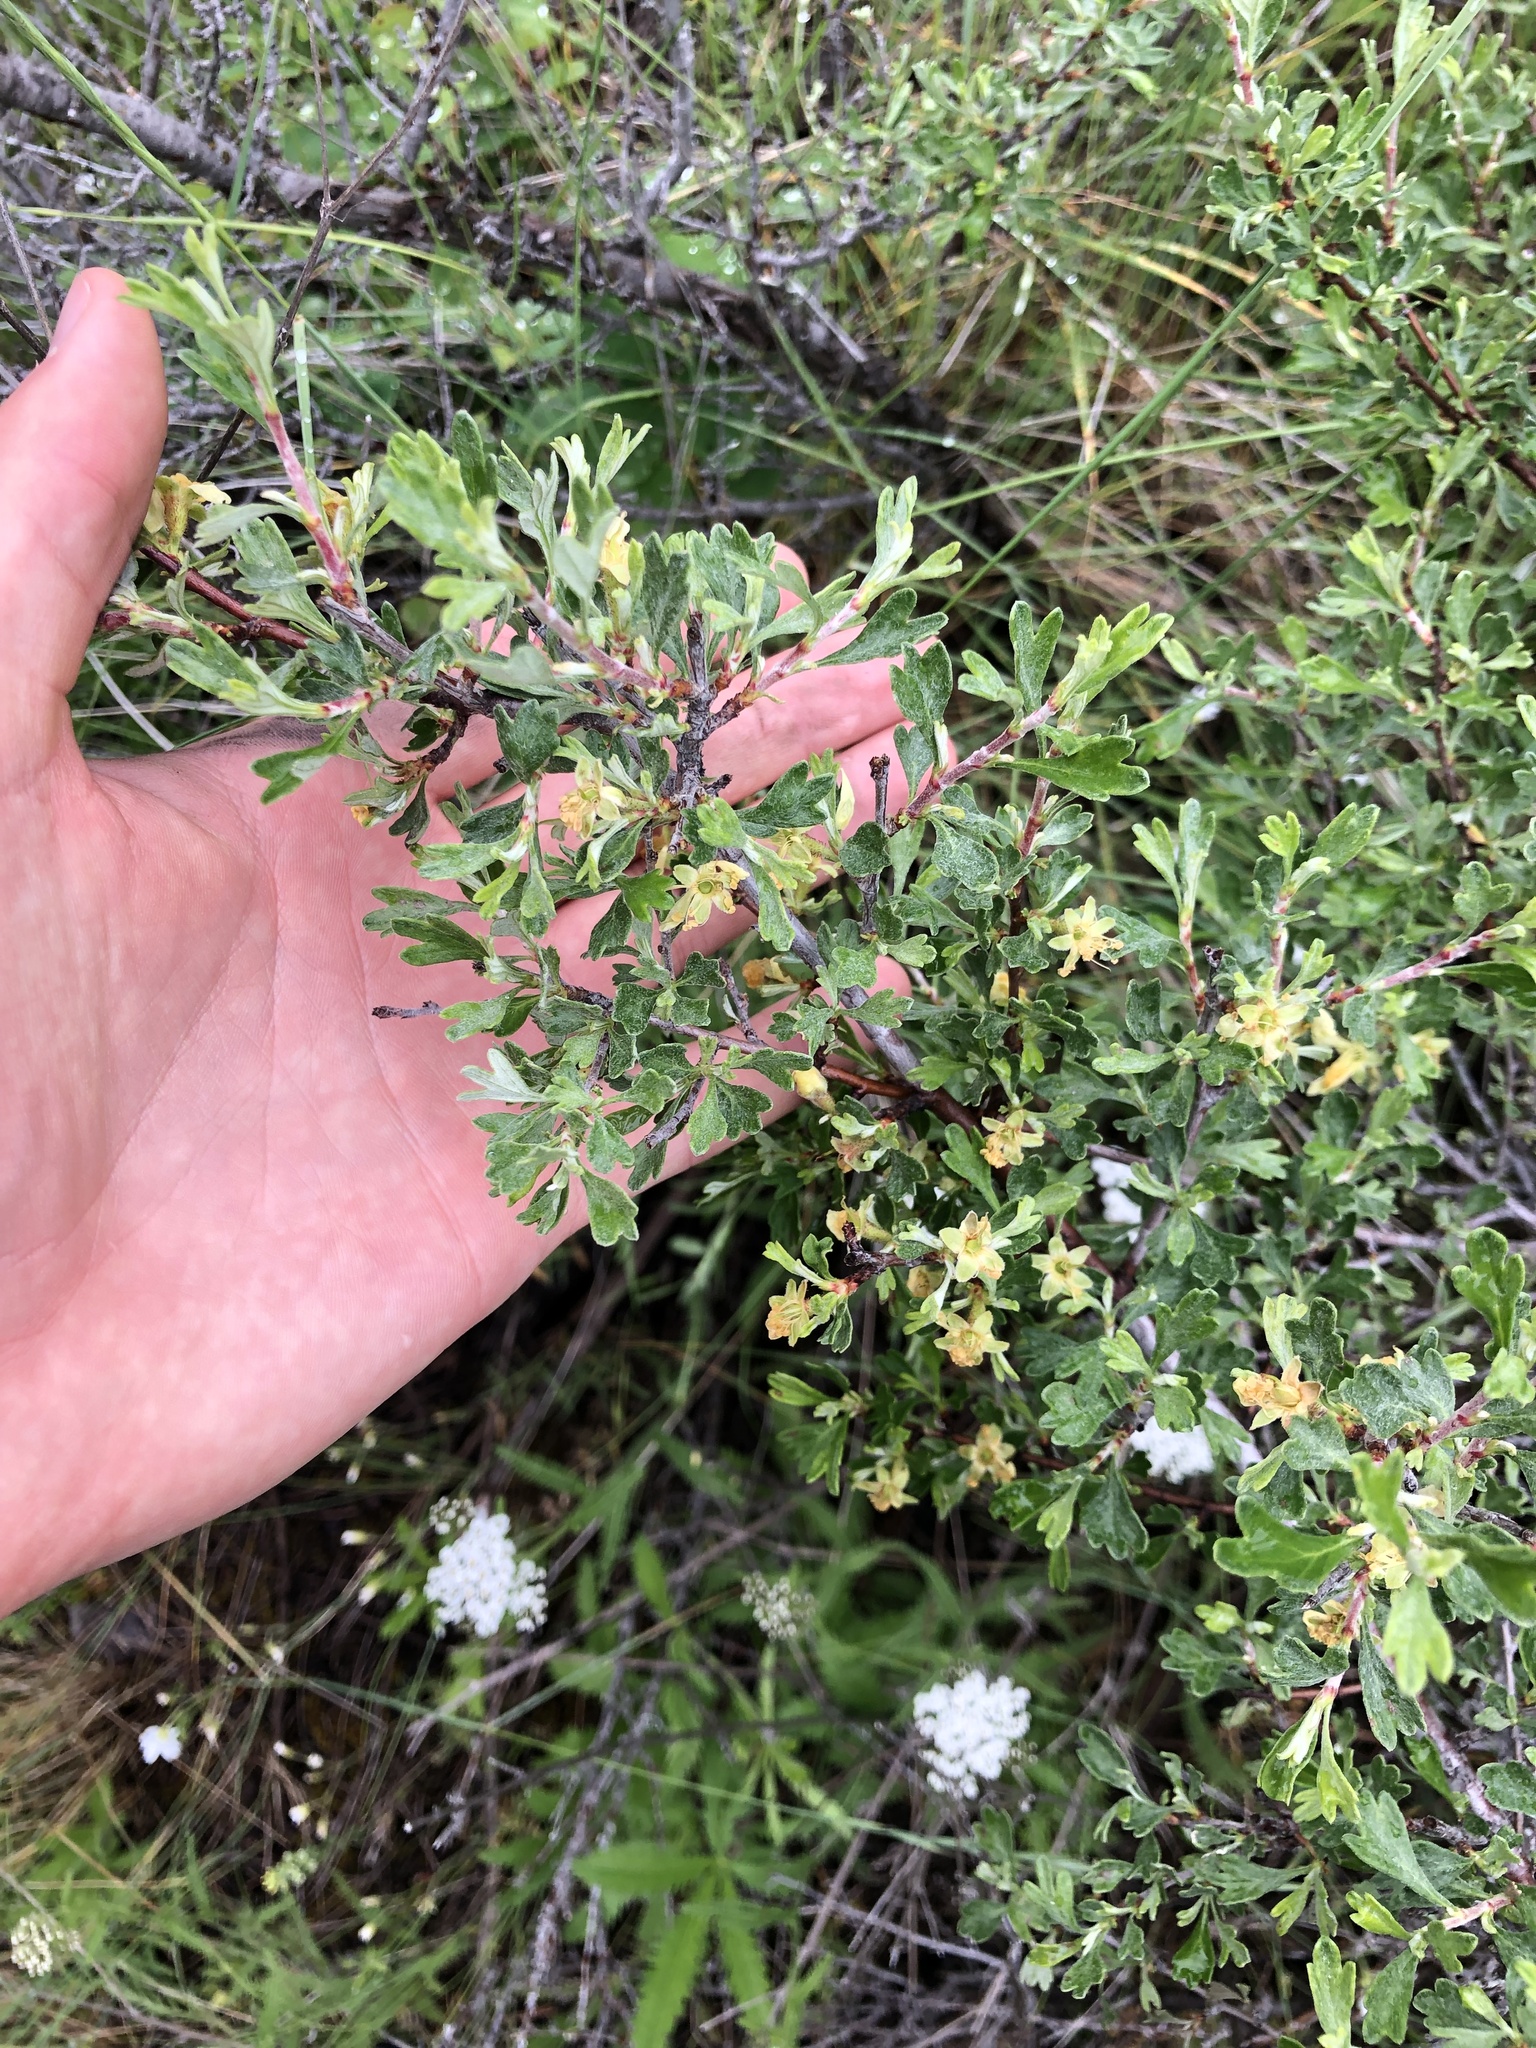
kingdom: Plantae
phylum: Tracheophyta
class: Magnoliopsida
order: Rosales
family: Rosaceae
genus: Purshia
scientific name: Purshia tridentata
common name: Antelope bitterbrush
